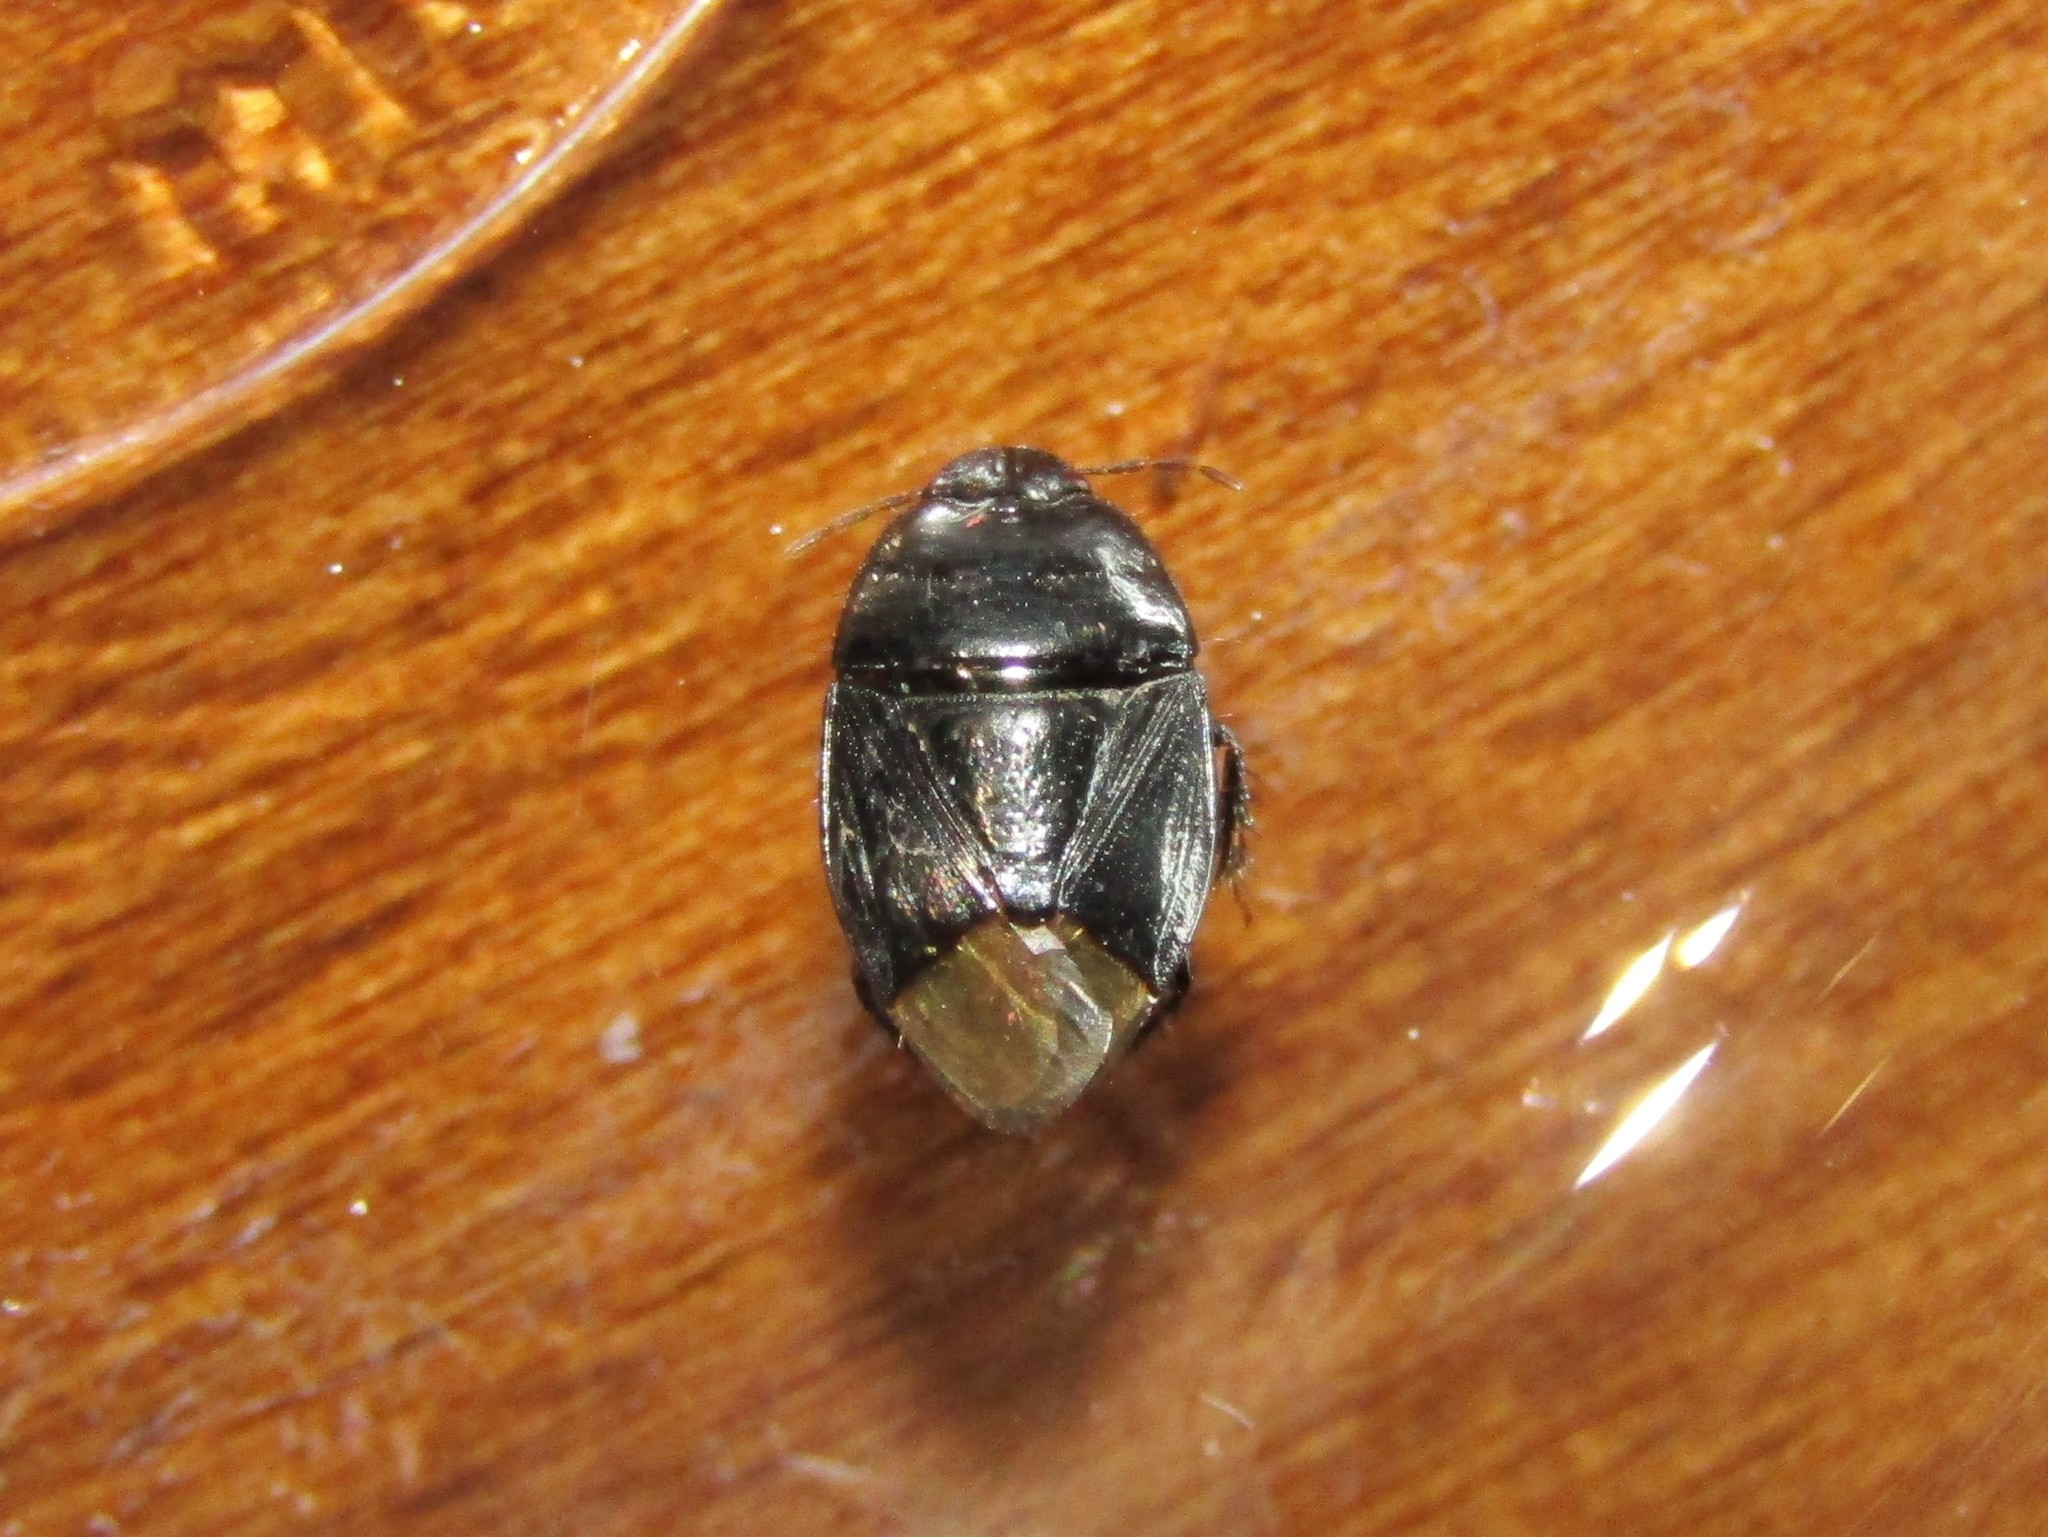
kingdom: Animalia
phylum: Arthropoda
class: Insecta
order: Hemiptera
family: Cydnidae
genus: Pangaeus
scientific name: Pangaeus bilineatus
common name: Burrower bug
